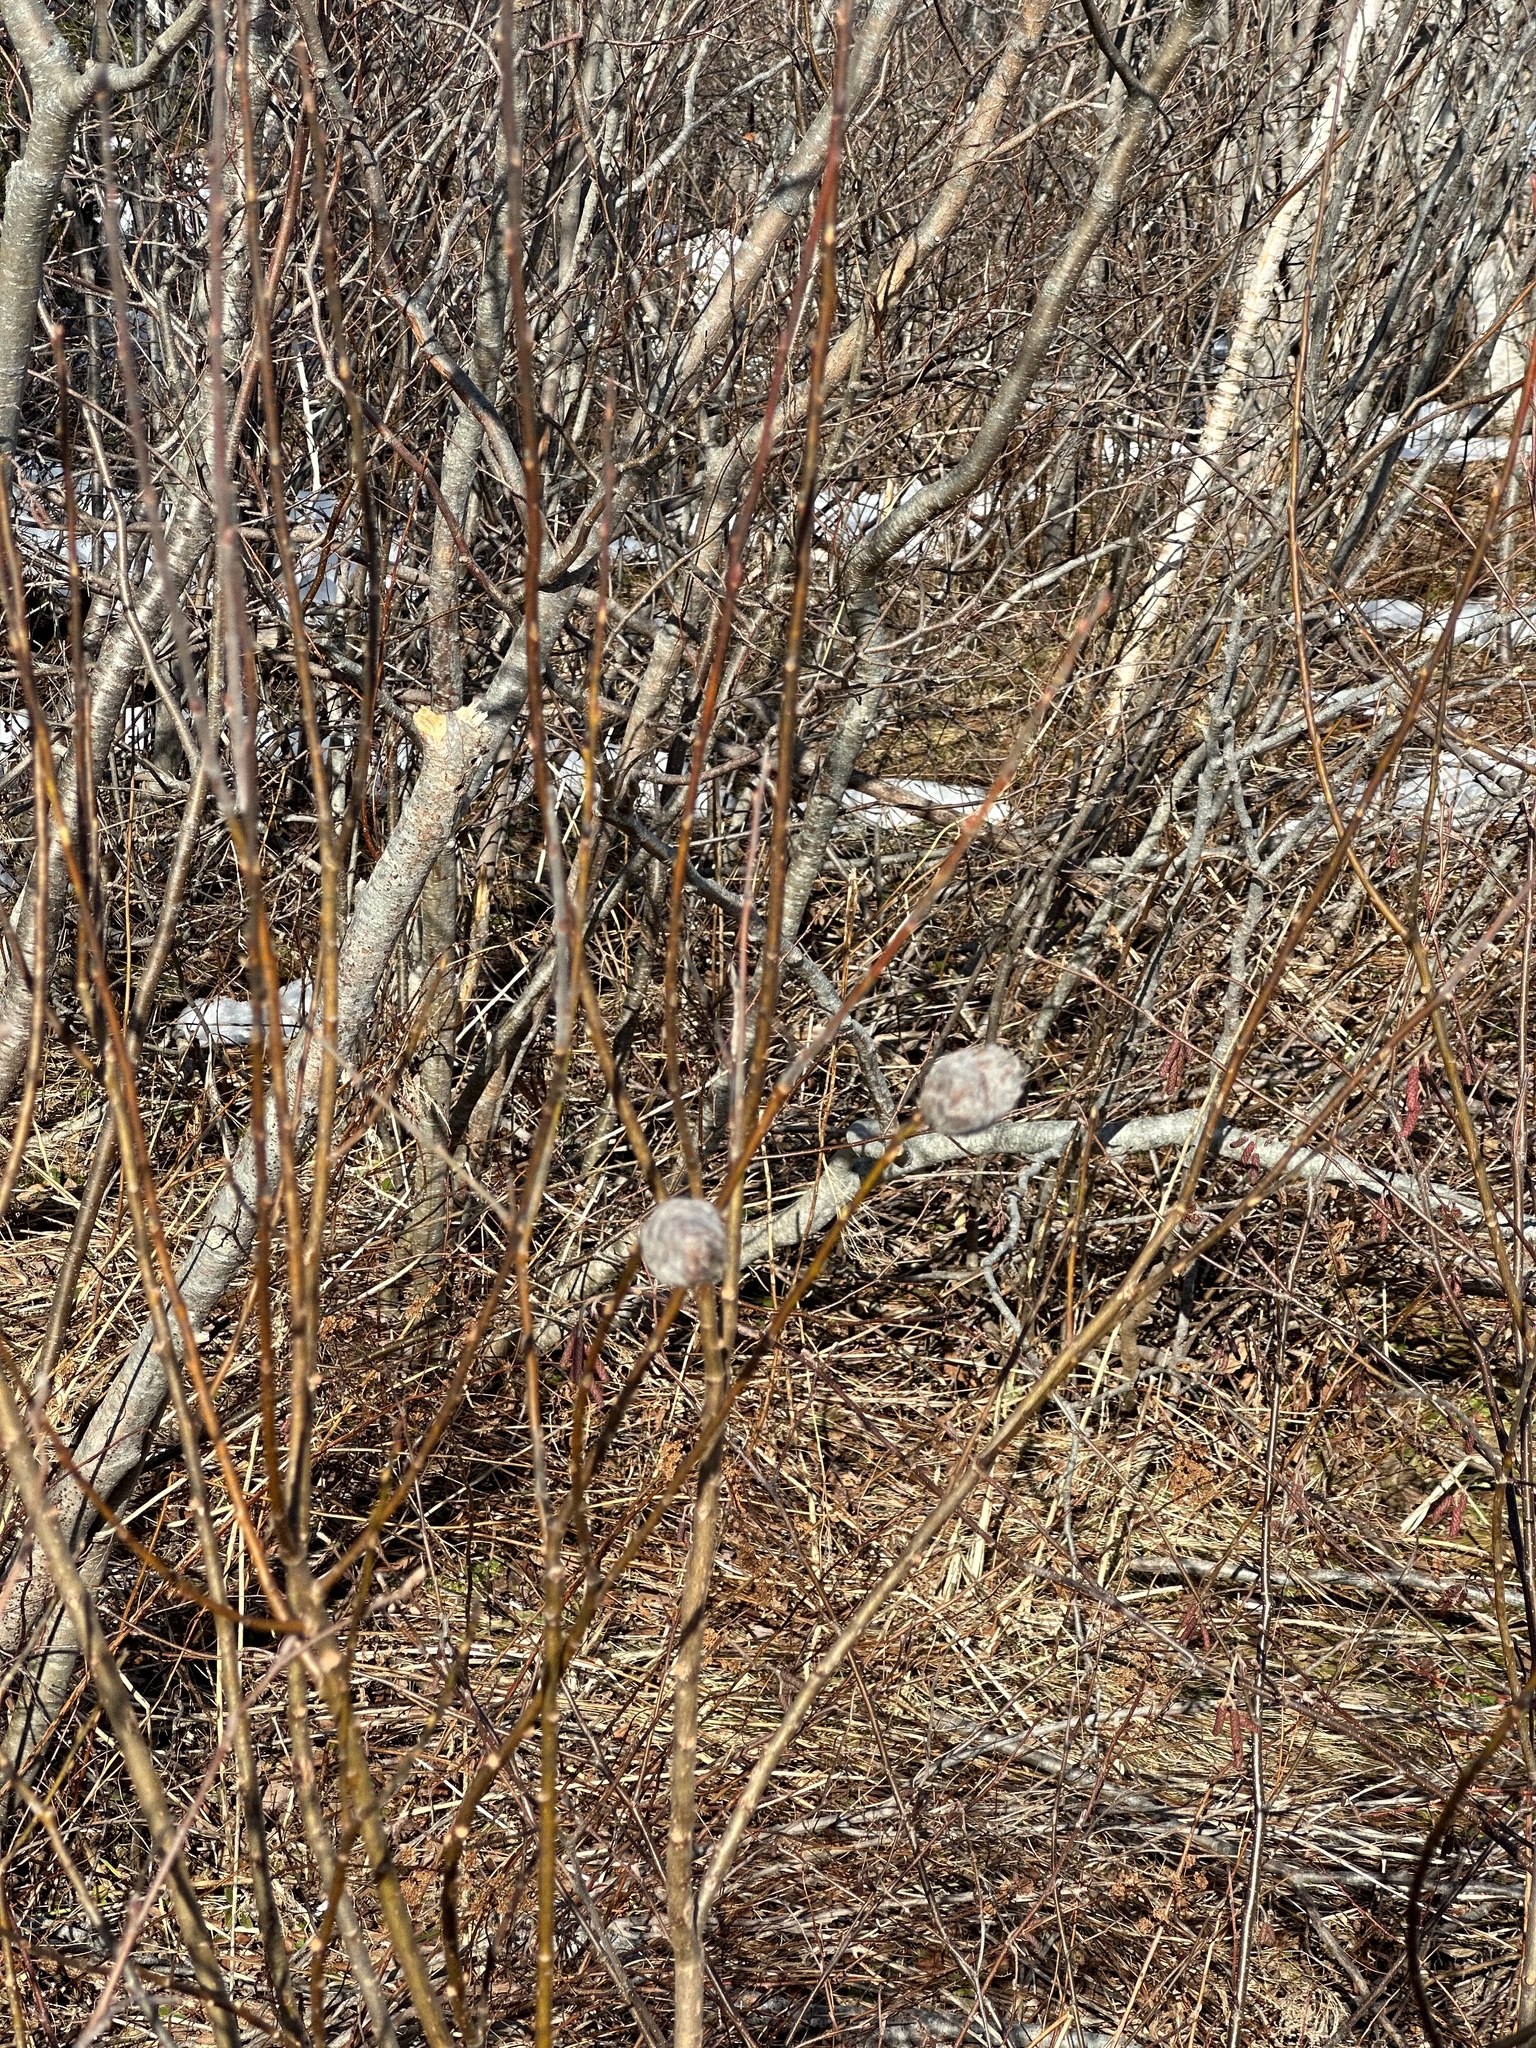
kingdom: Animalia
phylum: Arthropoda
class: Insecta
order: Diptera
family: Cecidomyiidae
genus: Rabdophaga
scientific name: Rabdophaga strobiloides
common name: Willow pinecone gall midge
